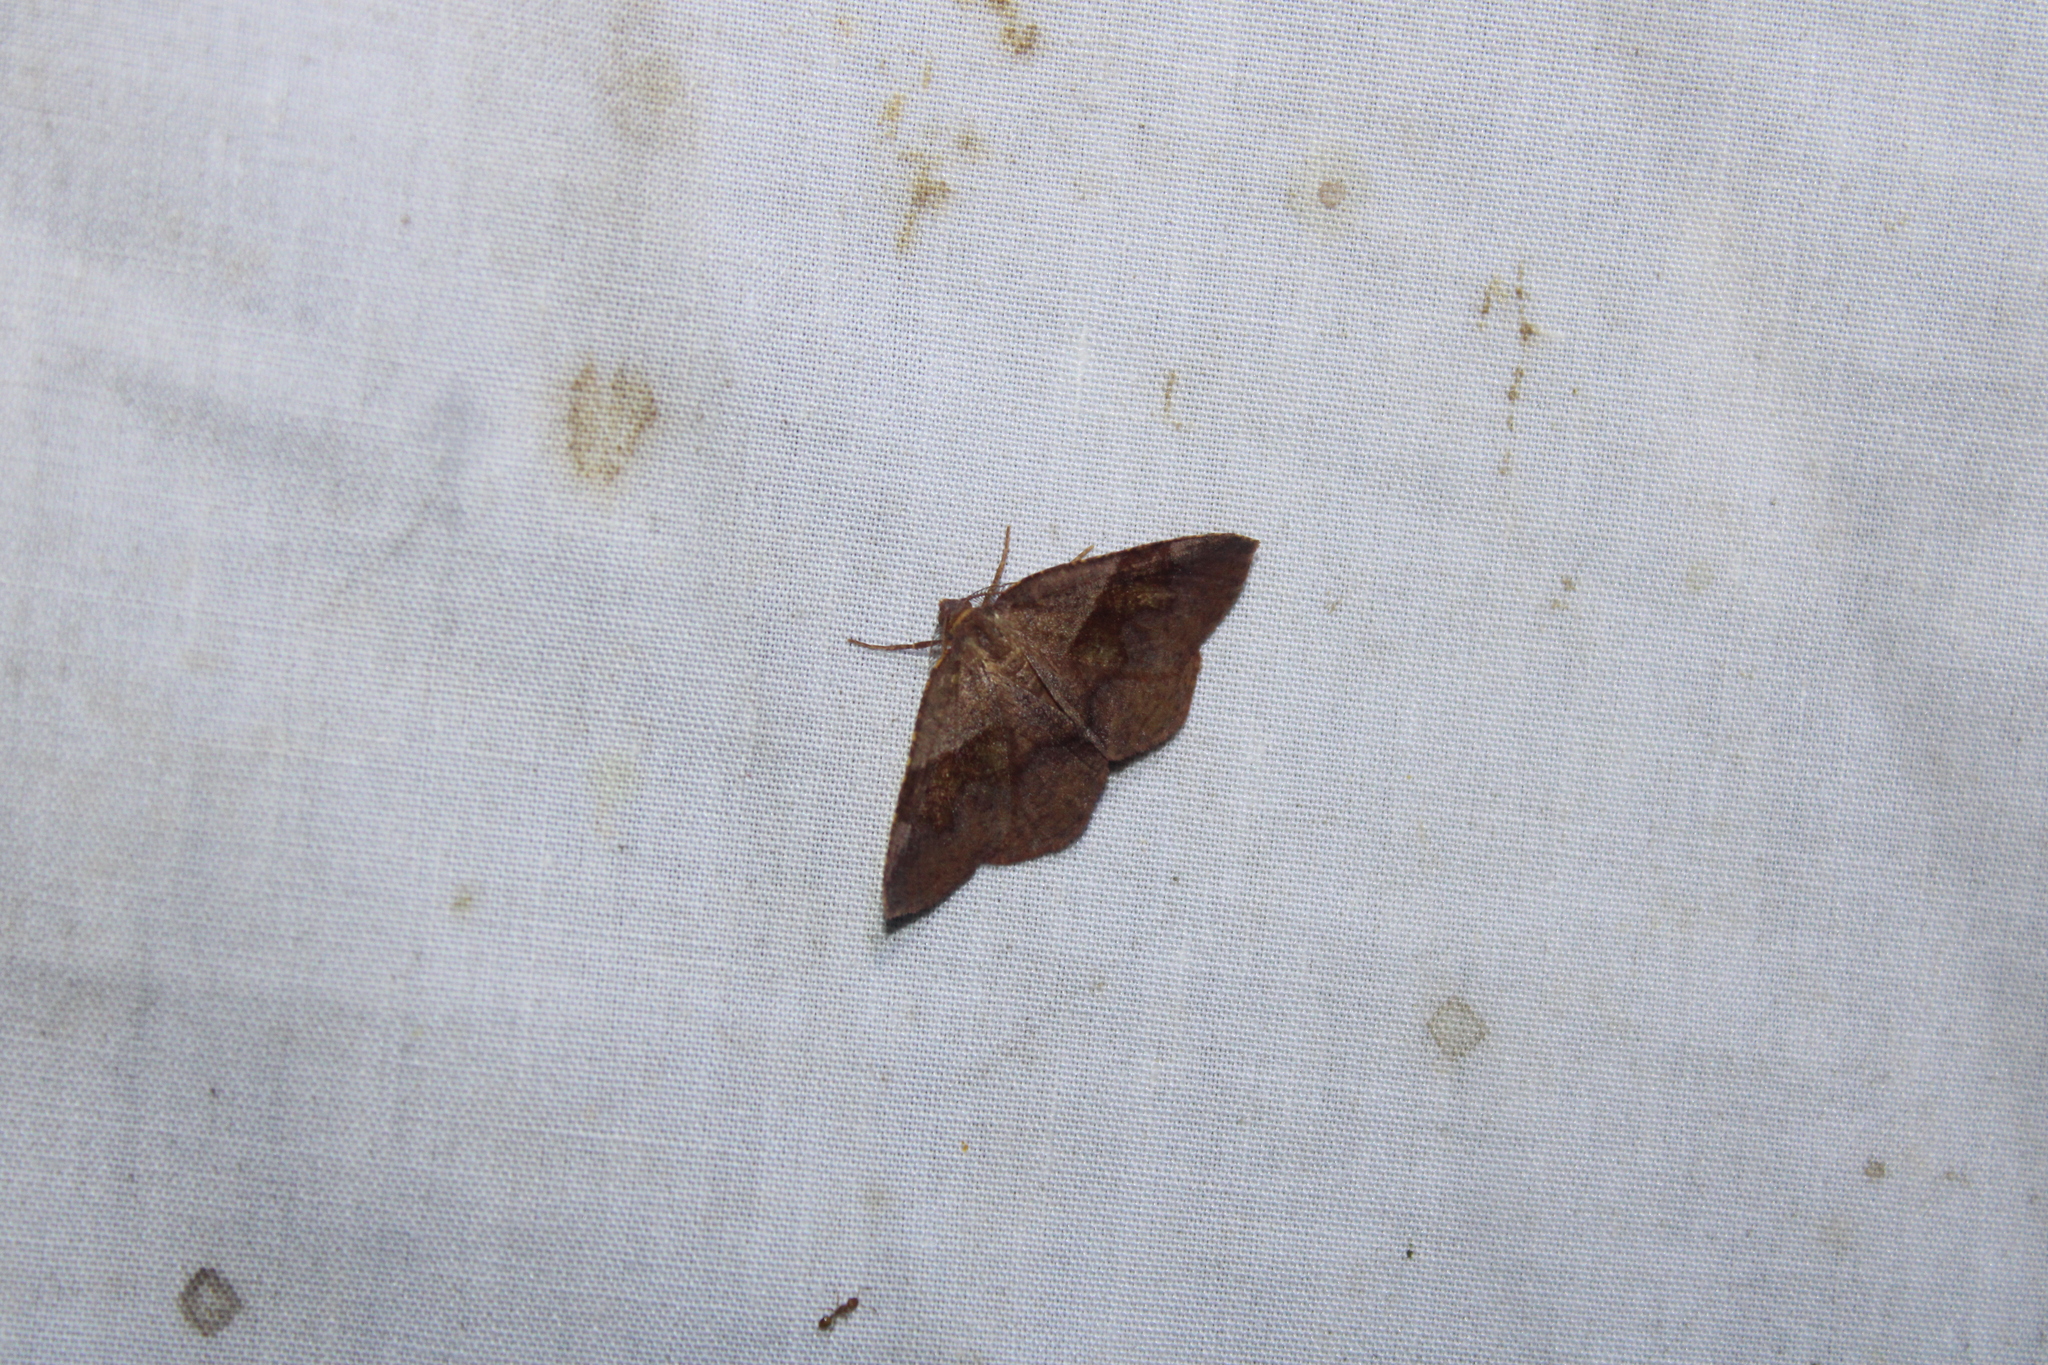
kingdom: Animalia
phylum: Arthropoda
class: Insecta
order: Lepidoptera
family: Geometridae
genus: Plagodis
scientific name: Plagodis pulveraria
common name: Barred umber
